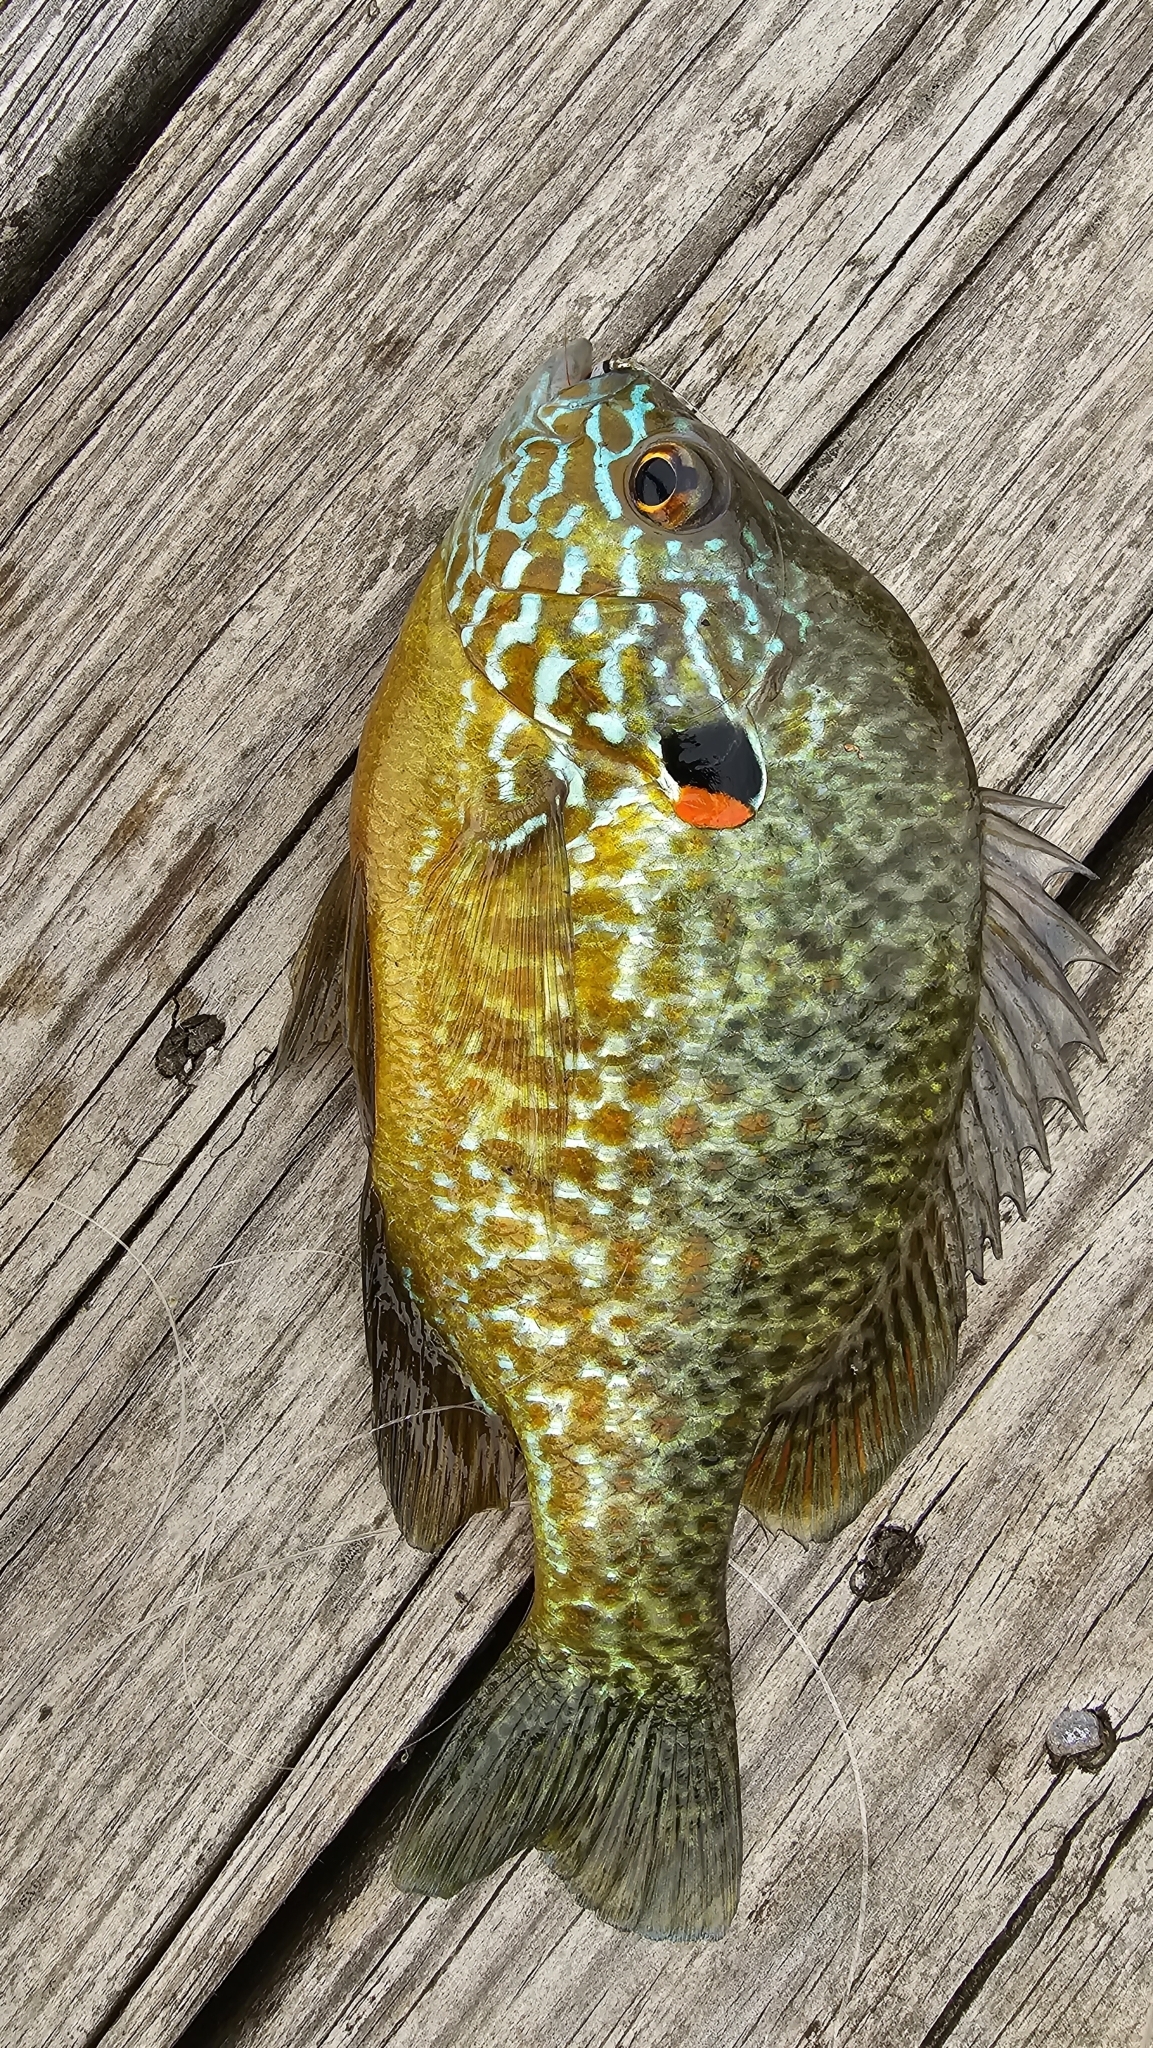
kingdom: Animalia
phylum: Chordata
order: Perciformes
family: Centrarchidae
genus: Lepomis
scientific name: Lepomis gibbosus
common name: Pumpkinseed
